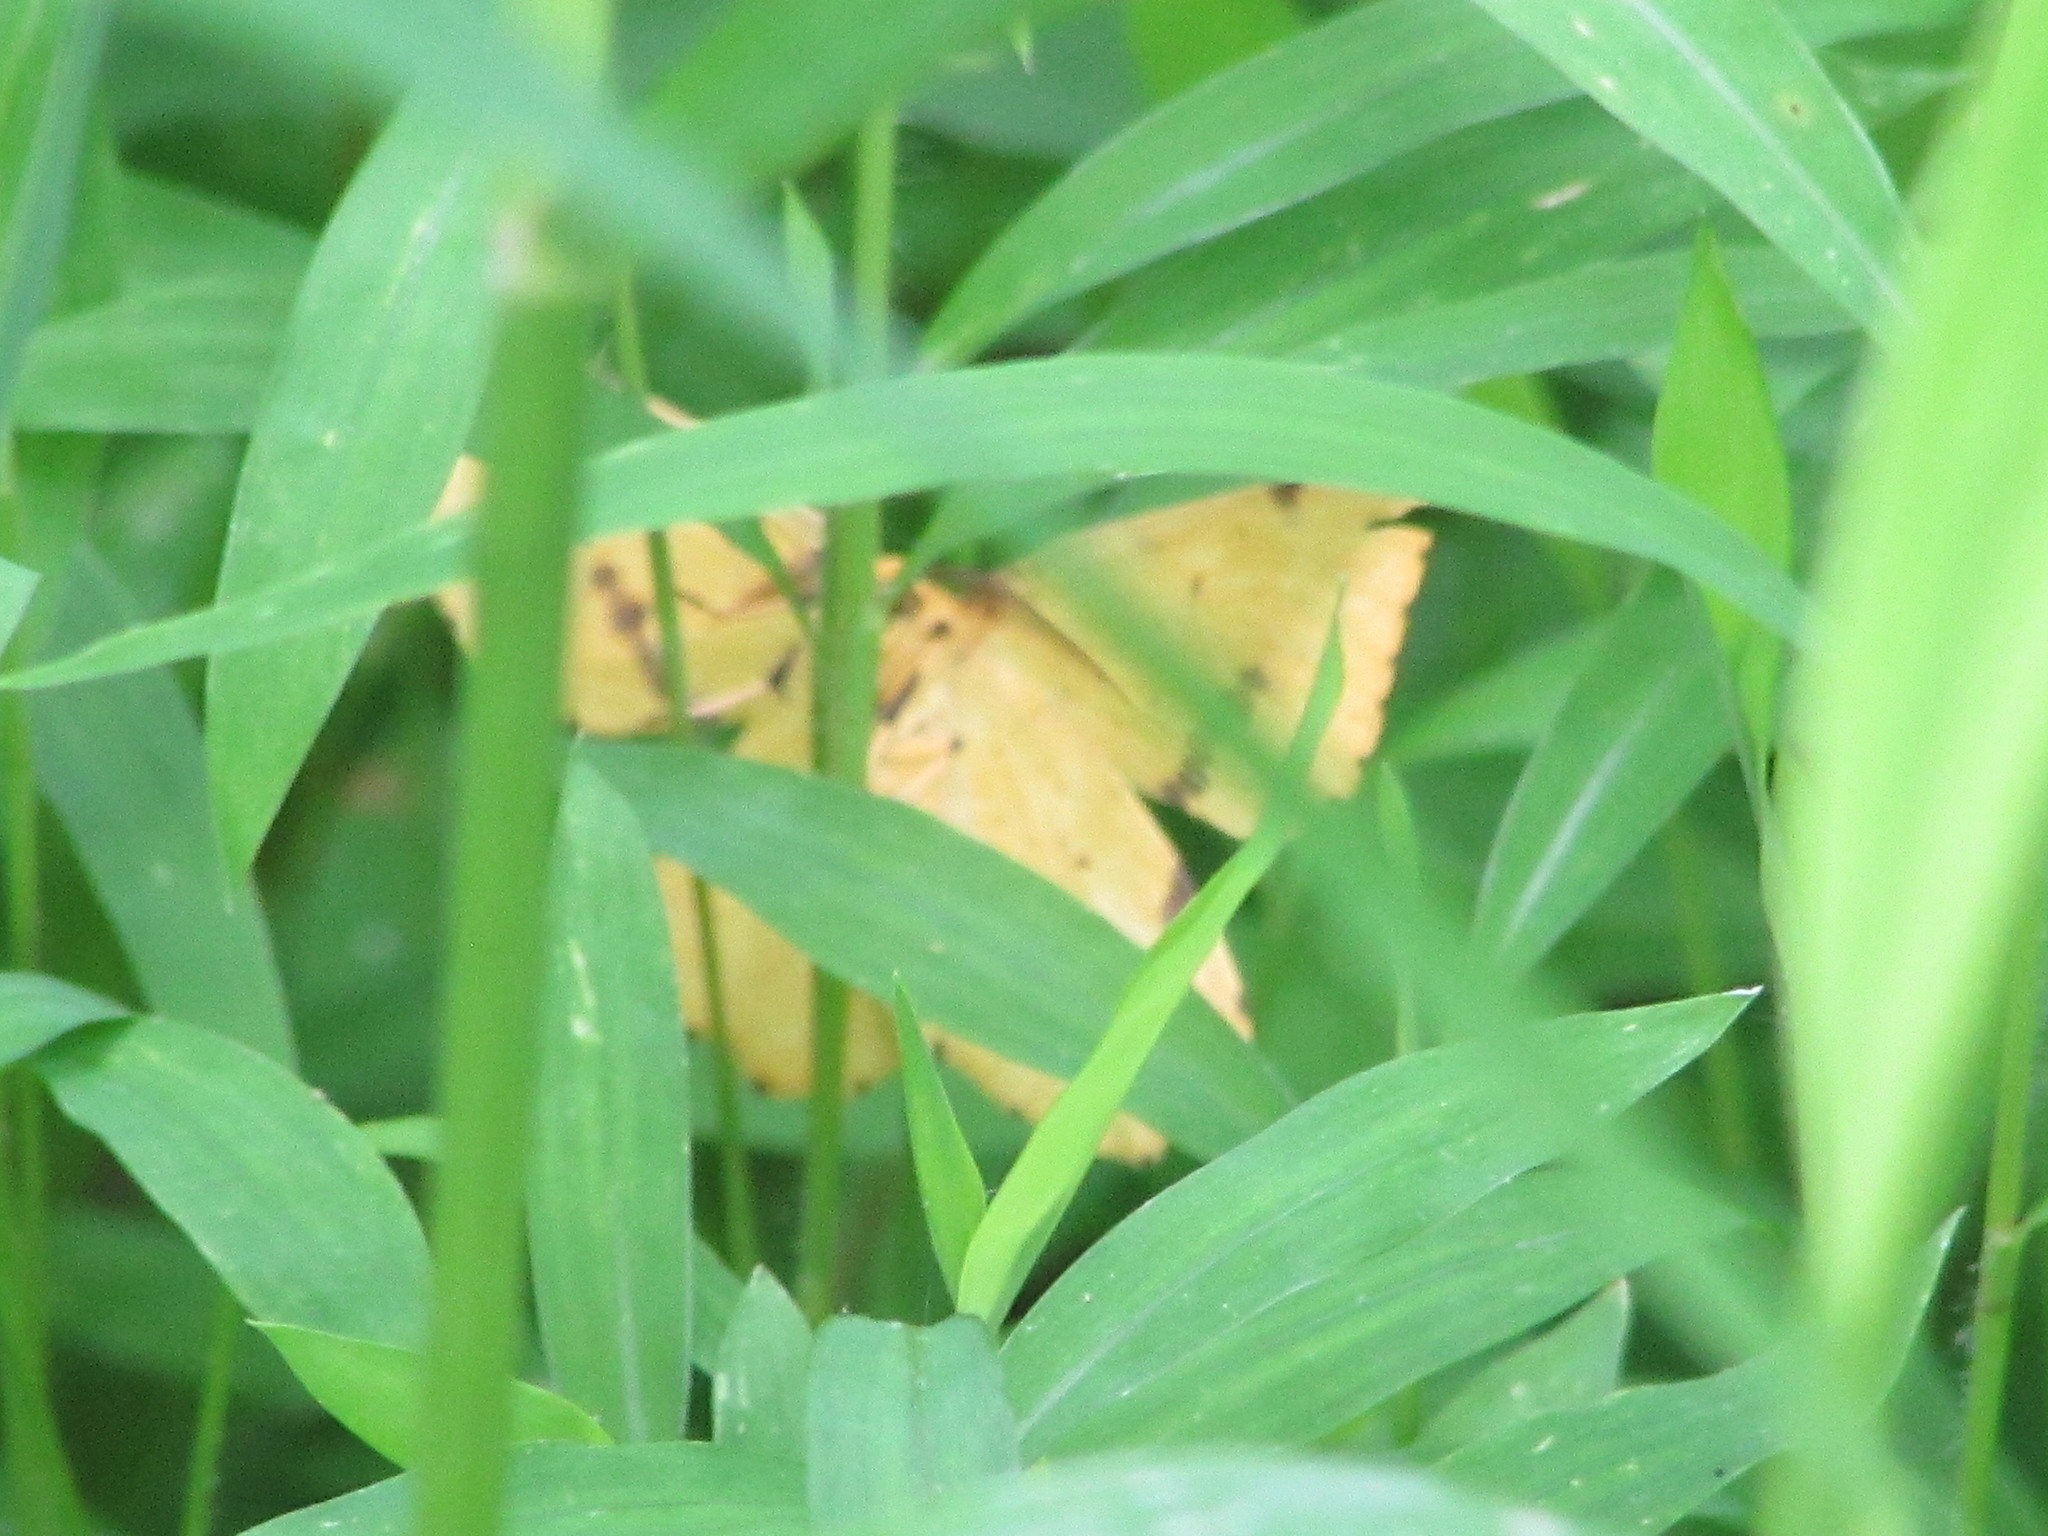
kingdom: Animalia
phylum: Arthropoda
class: Insecta
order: Lepidoptera
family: Geometridae
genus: Xanthotype
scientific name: Xanthotype
